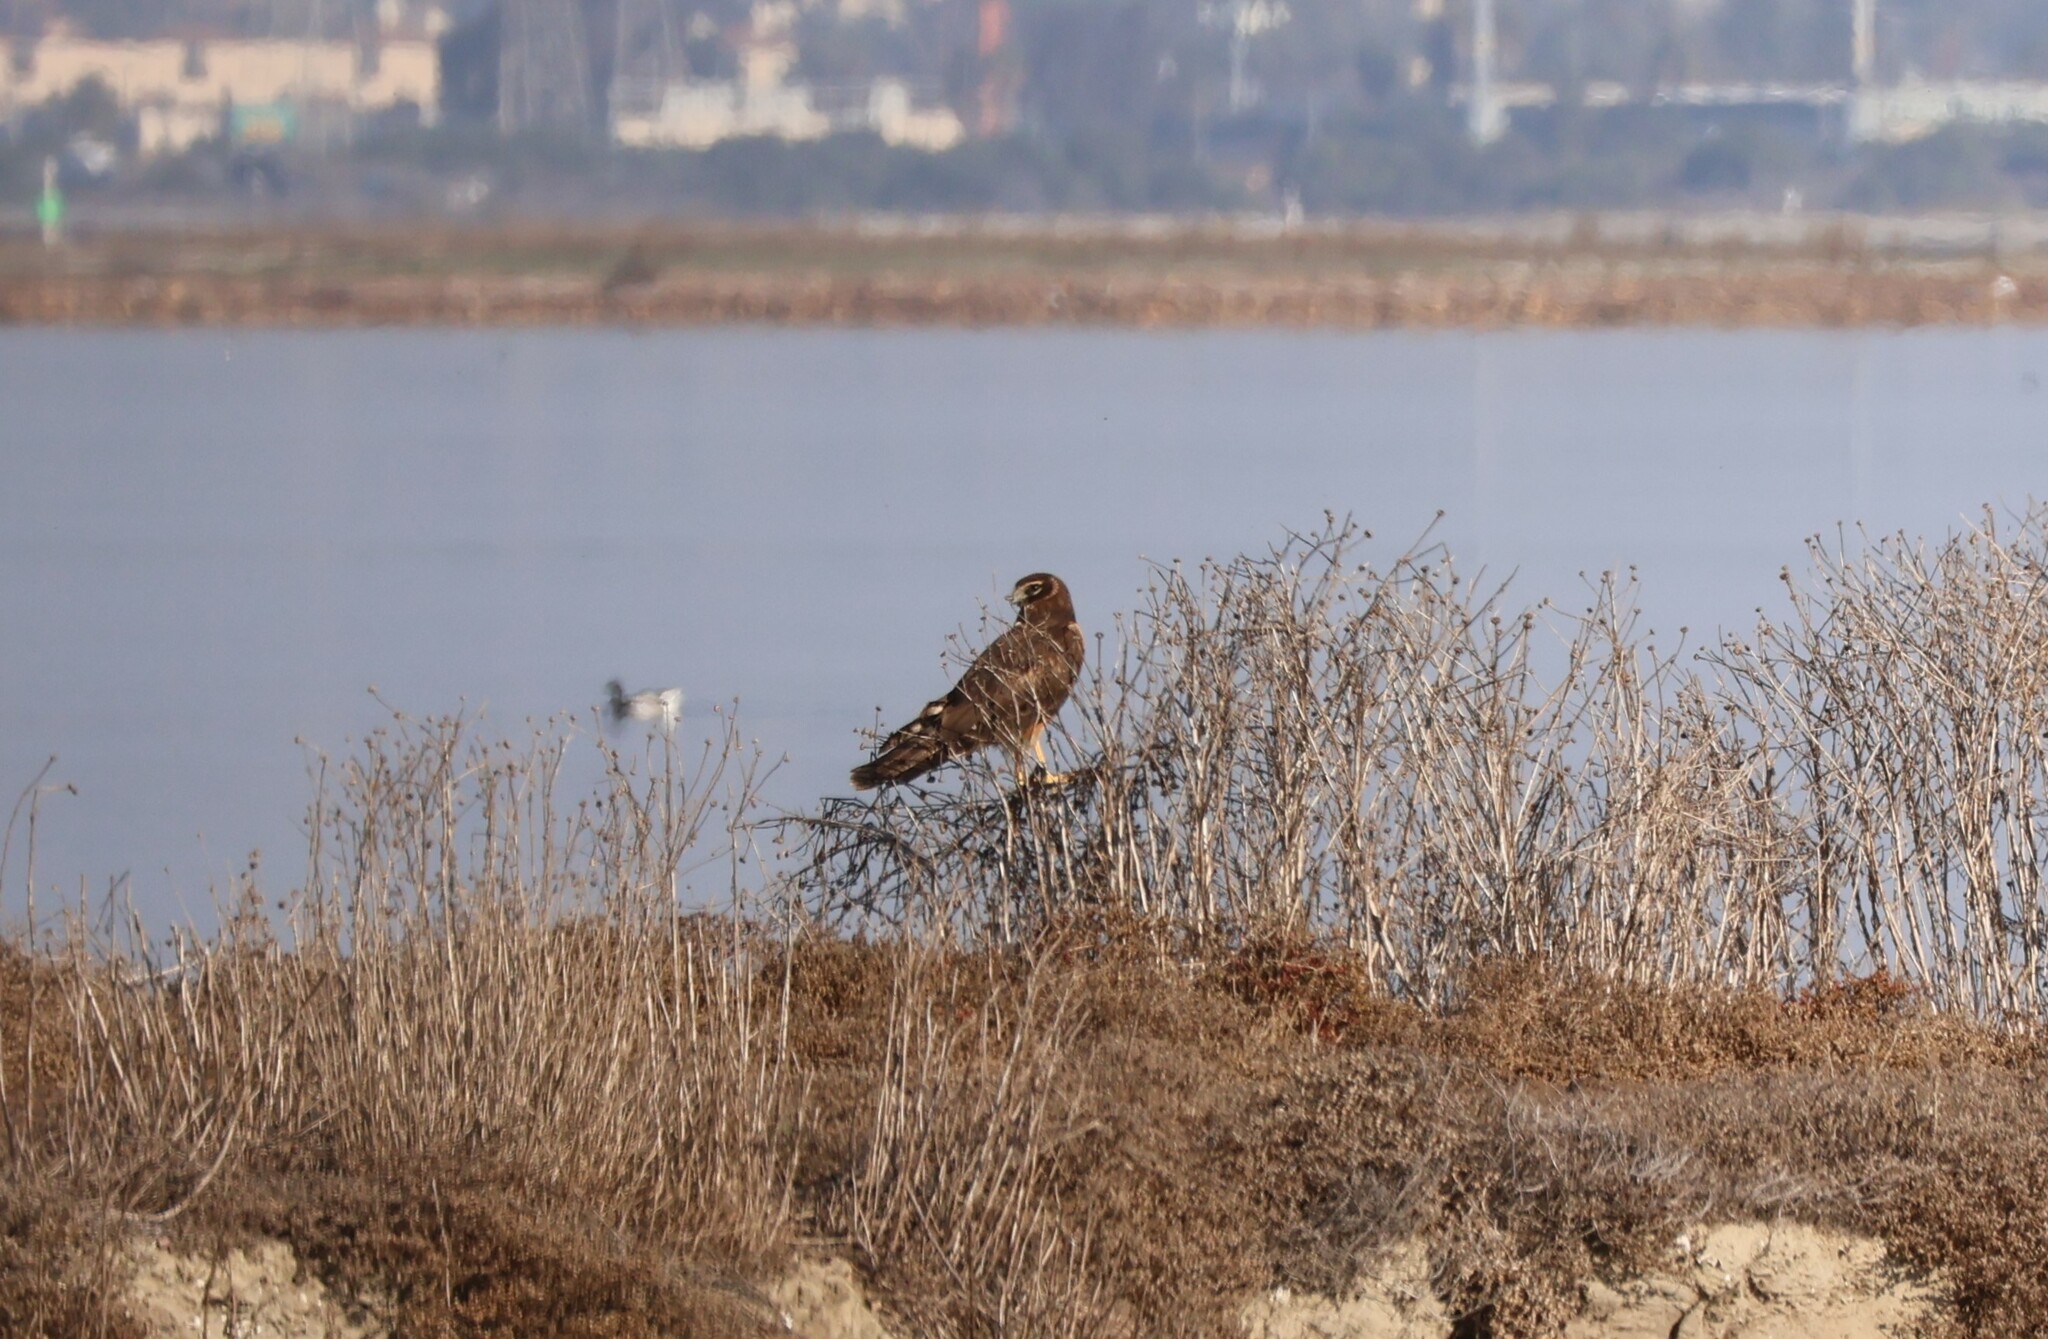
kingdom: Animalia
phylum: Chordata
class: Aves
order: Accipitriformes
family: Accipitridae
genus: Circus
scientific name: Circus cyaneus
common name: Hen harrier
